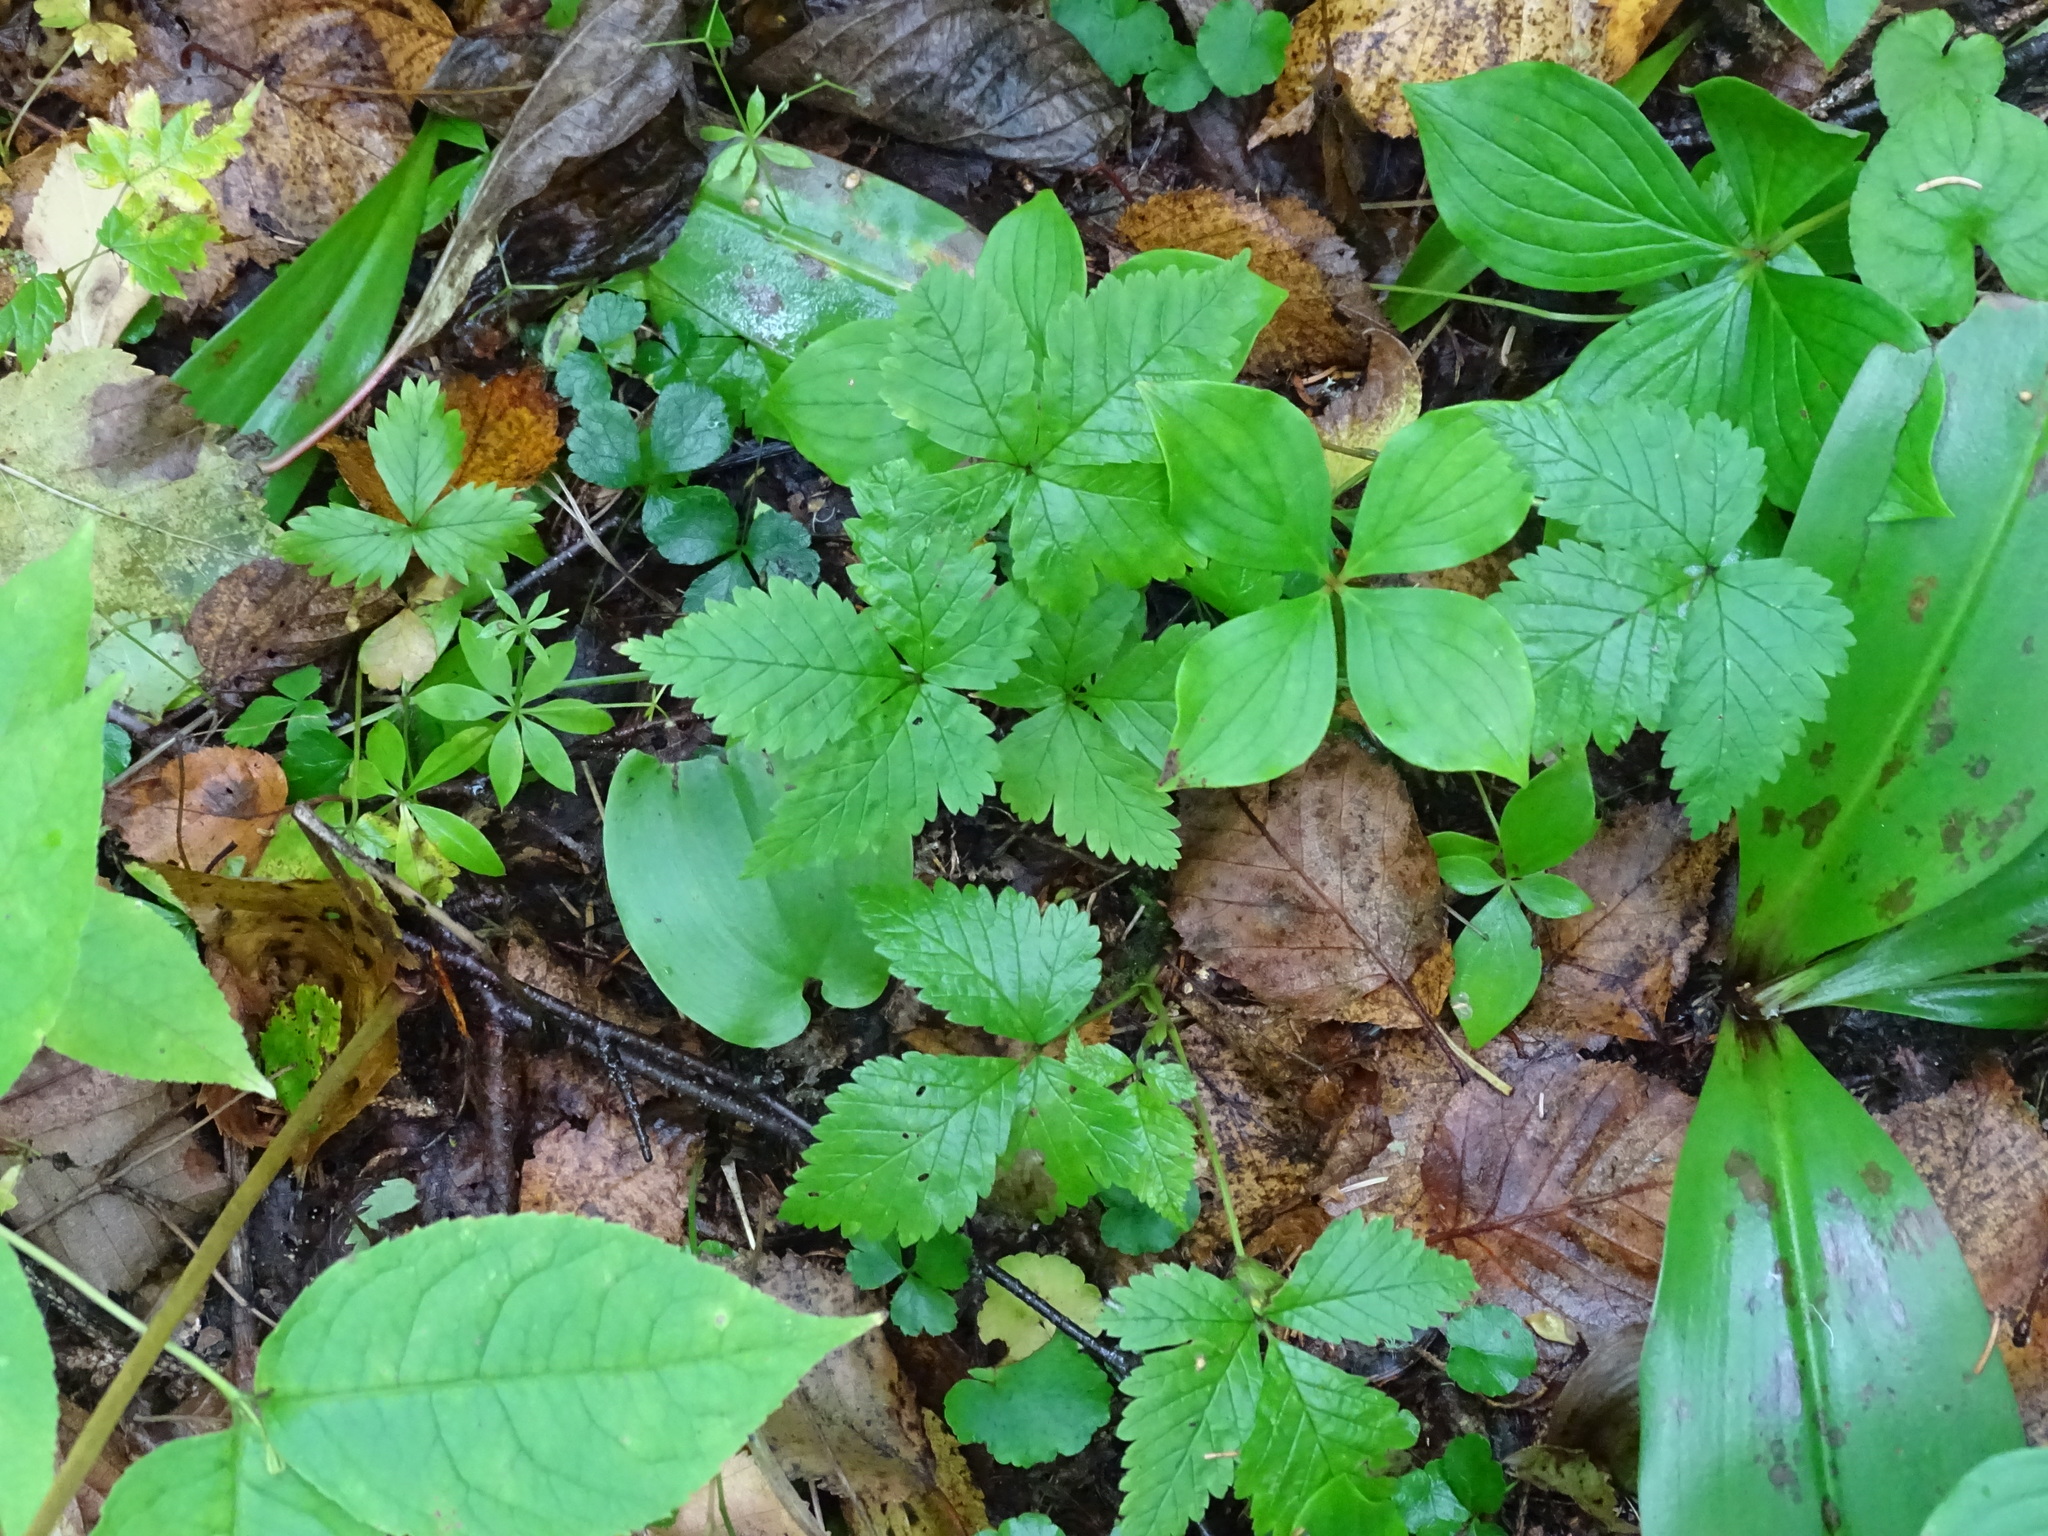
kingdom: Plantae
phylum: Tracheophyta
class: Magnoliopsida
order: Rosales
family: Rosaceae
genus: Rubus
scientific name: Rubus pubescens
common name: Dwarf raspberry
